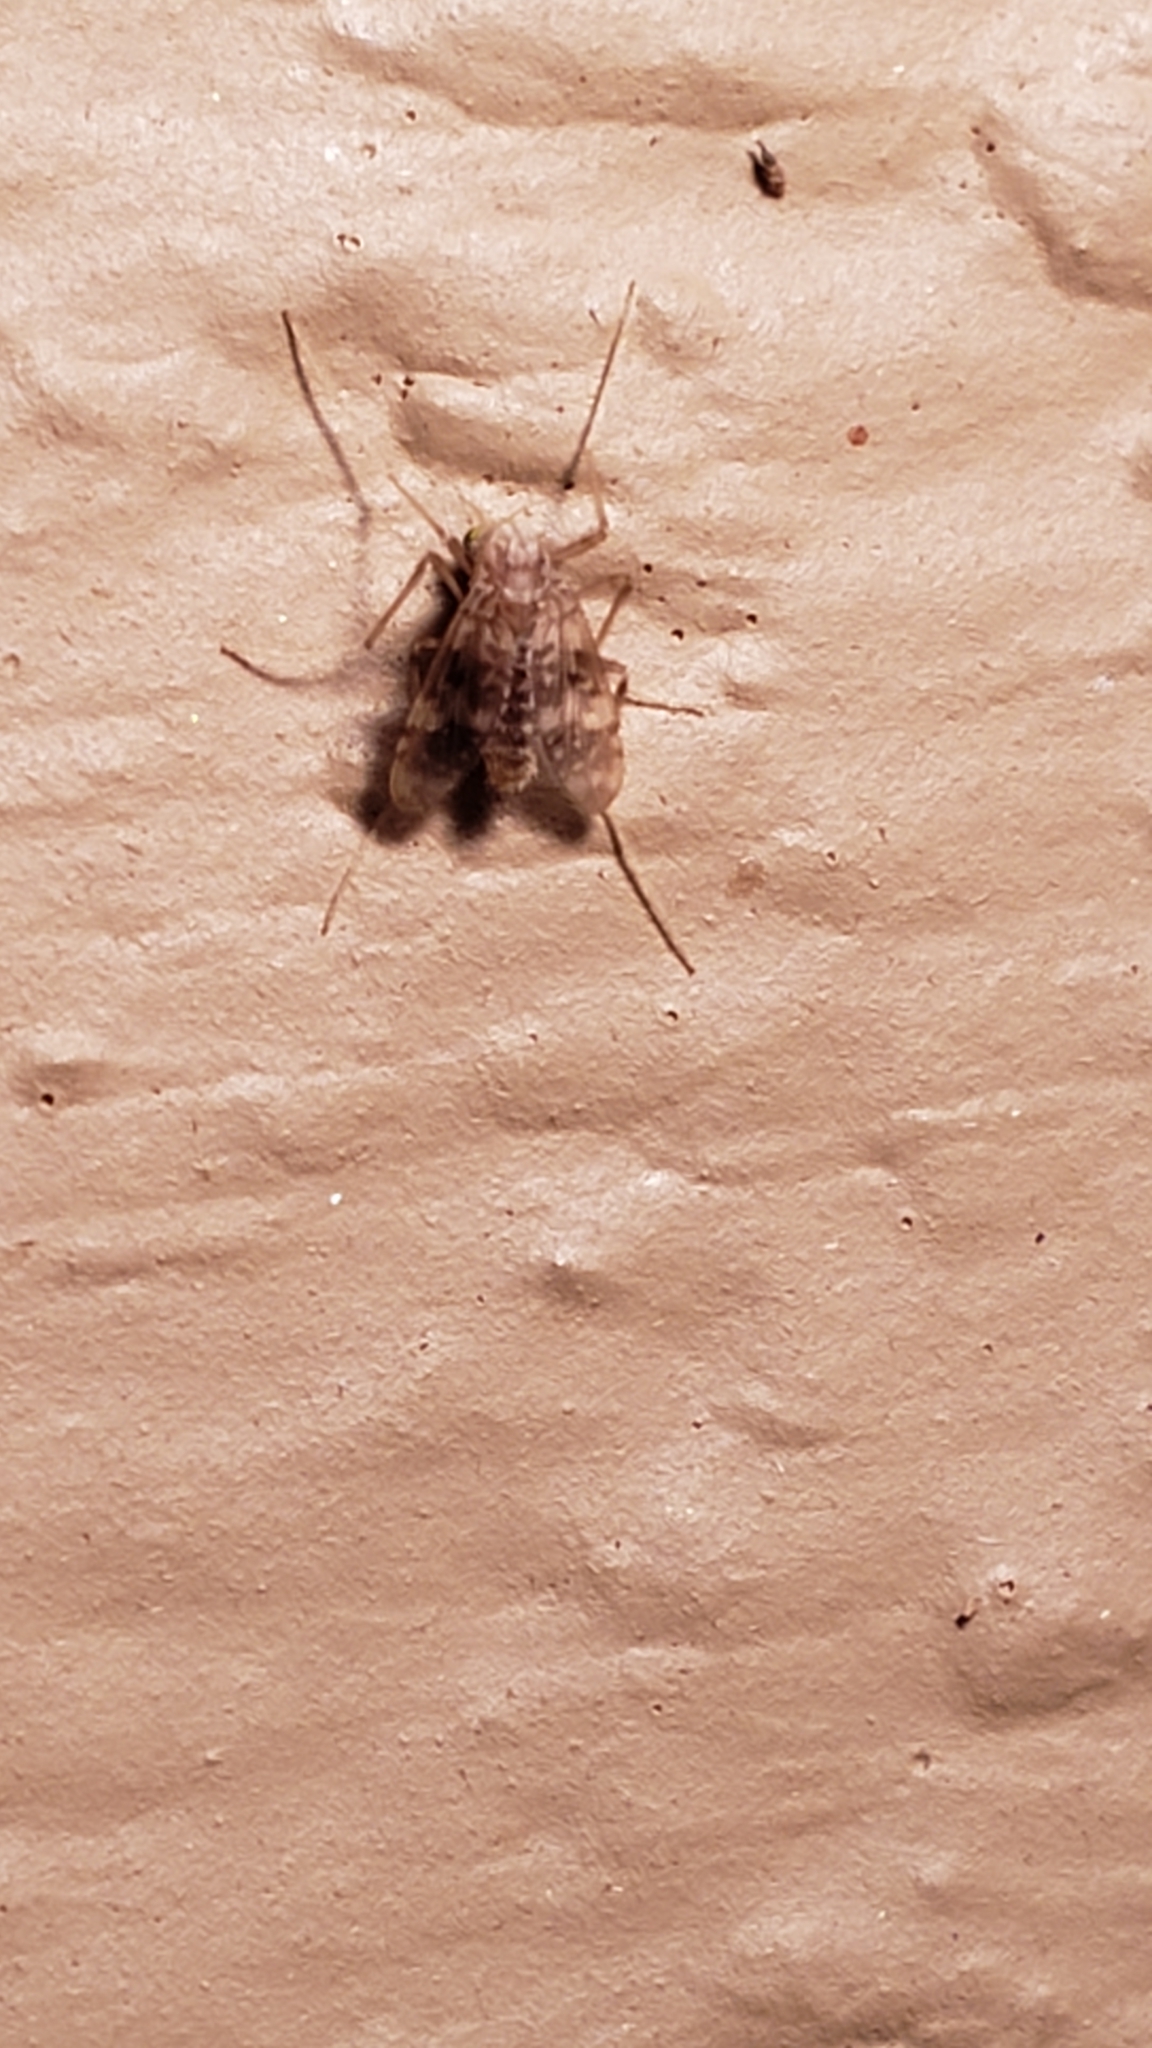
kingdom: Animalia
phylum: Arthropoda
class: Insecta
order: Diptera
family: Chironomidae
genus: Psectrotanypus
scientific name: Psectrotanypus dyari
